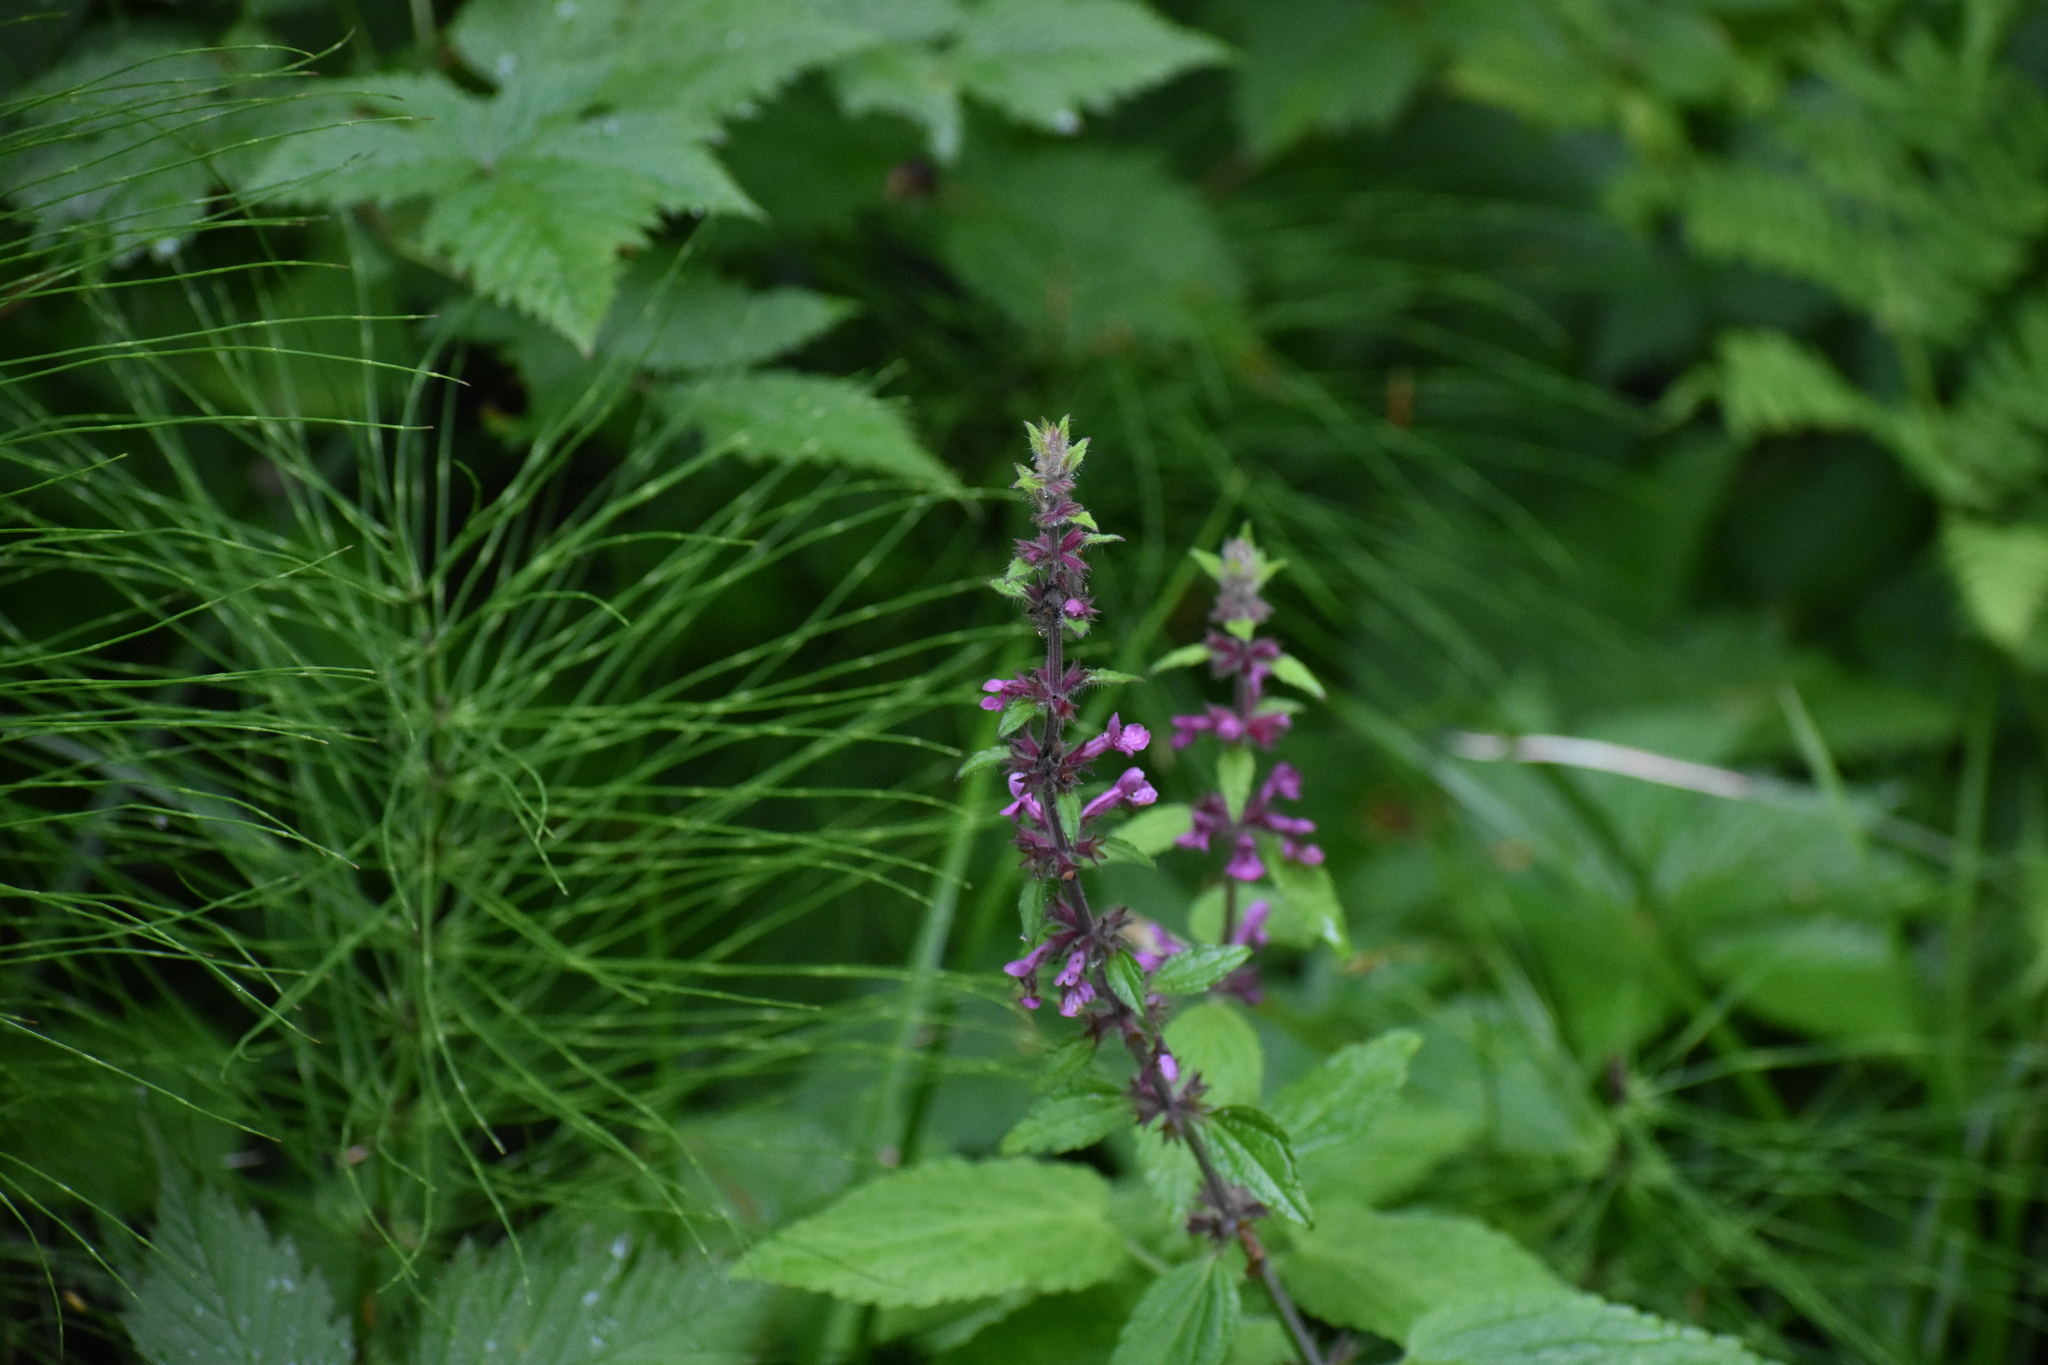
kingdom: Plantae
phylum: Tracheophyta
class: Magnoliopsida
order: Lamiales
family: Lamiaceae
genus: Stachys
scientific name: Stachys chamissonis
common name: Coastal hedge-nettle
